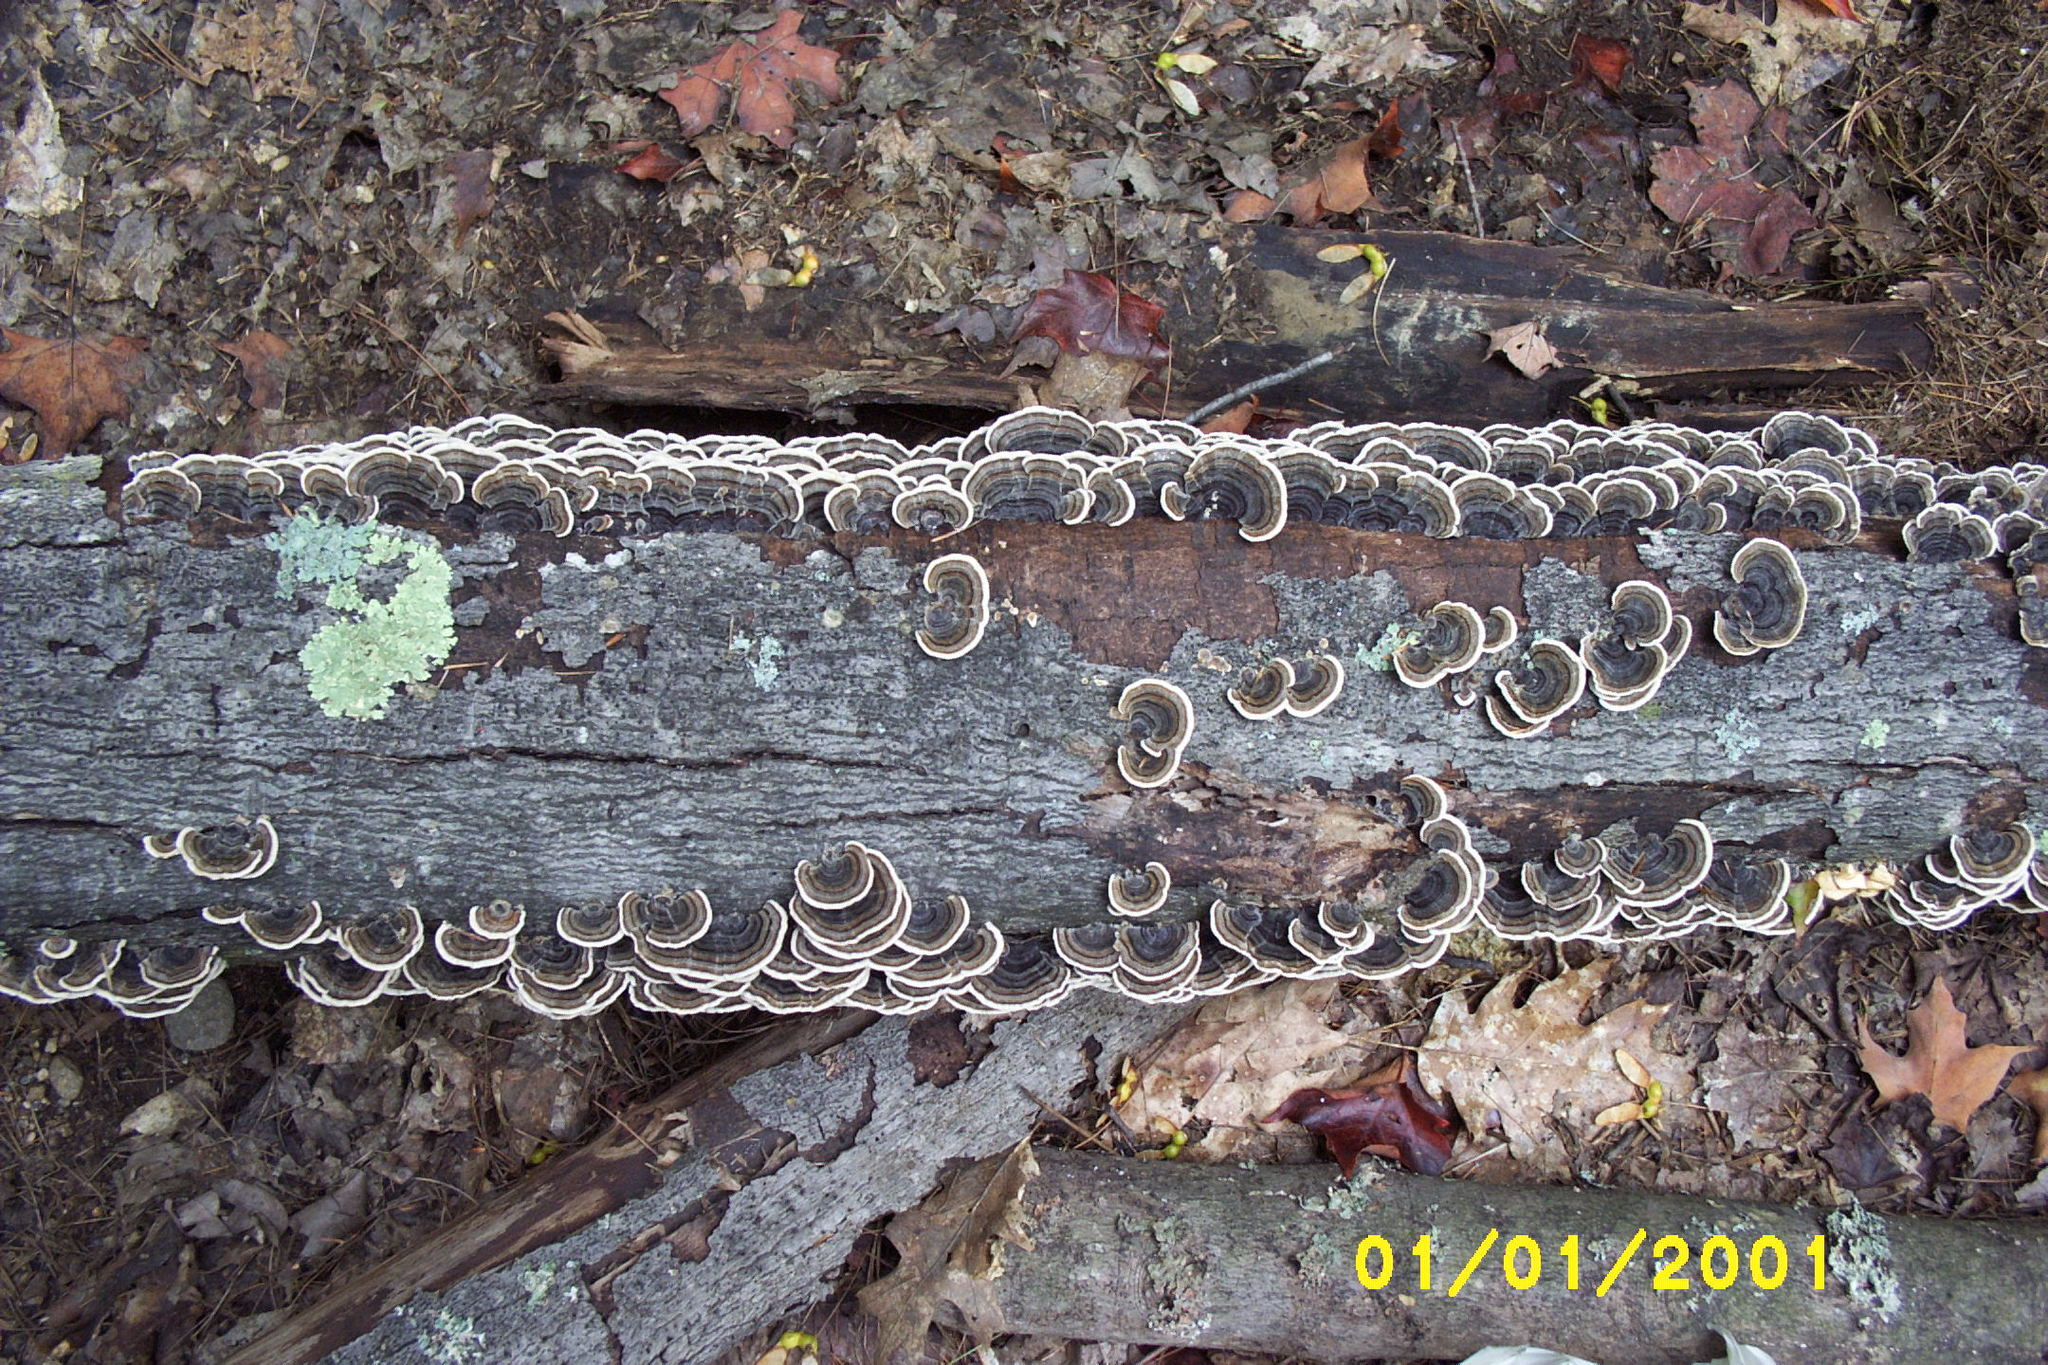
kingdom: Fungi
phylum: Basidiomycota
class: Agaricomycetes
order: Polyporales
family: Polyporaceae
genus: Trametes
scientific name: Trametes versicolor
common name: Turkeytail
